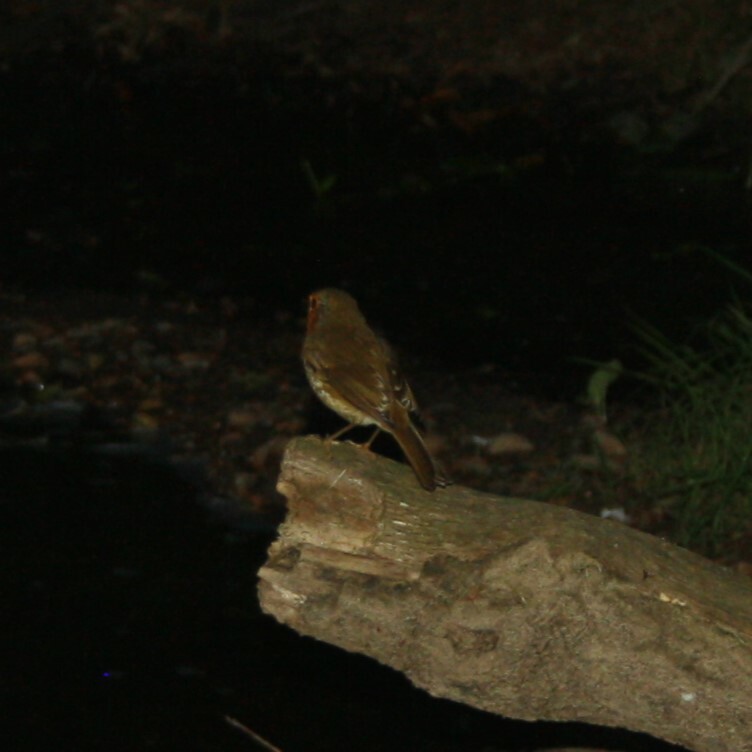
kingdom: Animalia
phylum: Chordata
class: Aves
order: Passeriformes
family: Muscicapidae
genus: Erithacus
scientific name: Erithacus rubecula
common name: European robin
